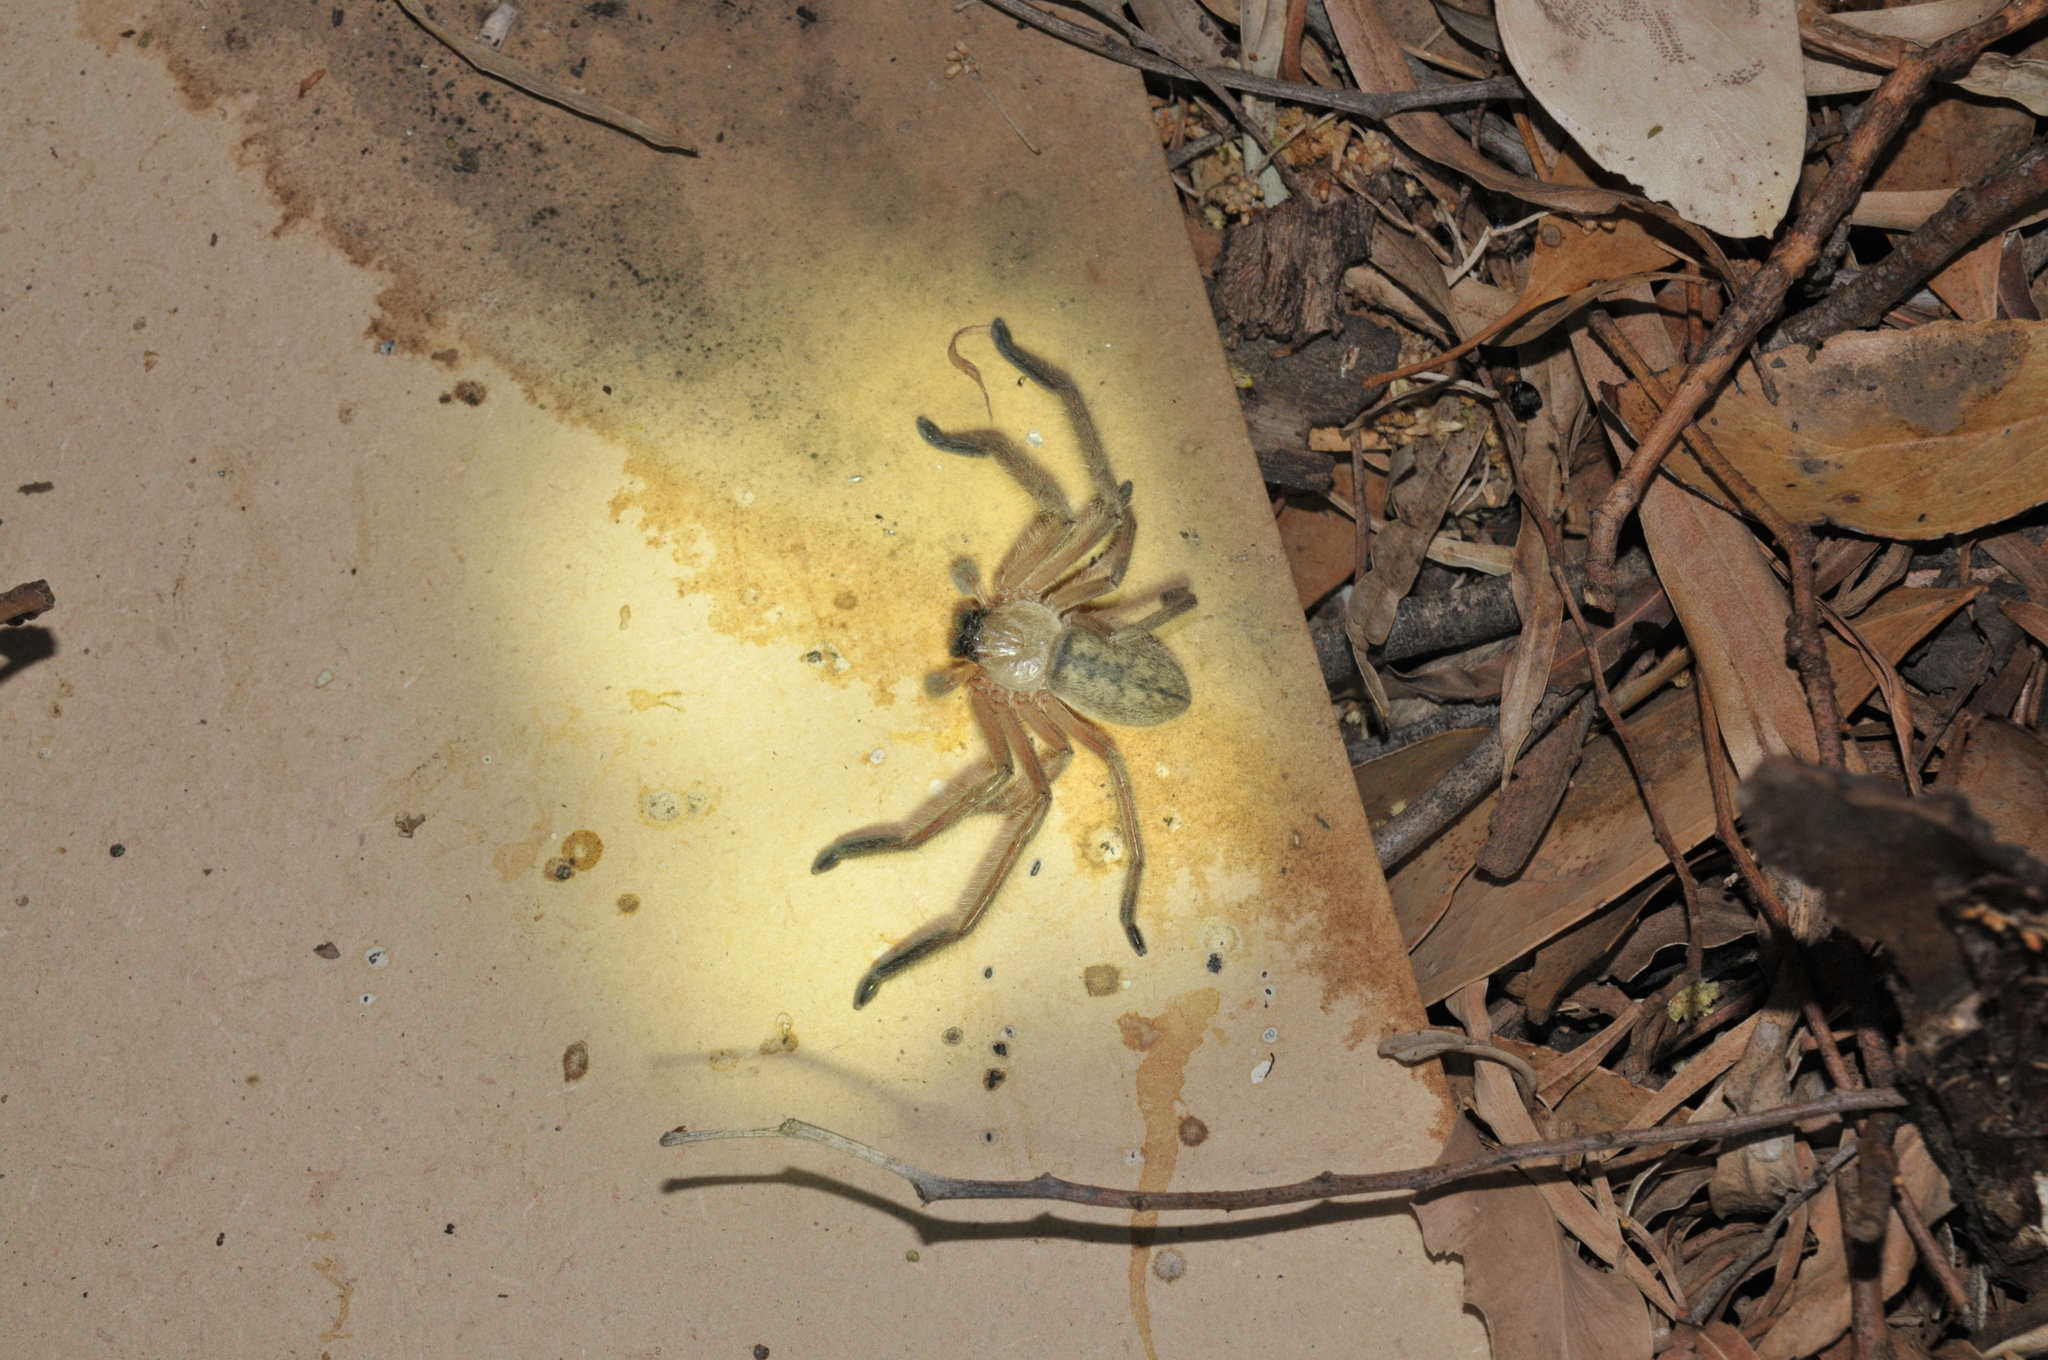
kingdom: Animalia
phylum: Arthropoda
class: Arachnida
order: Araneae
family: Sparassidae
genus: Delena
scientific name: Delena cancerides
